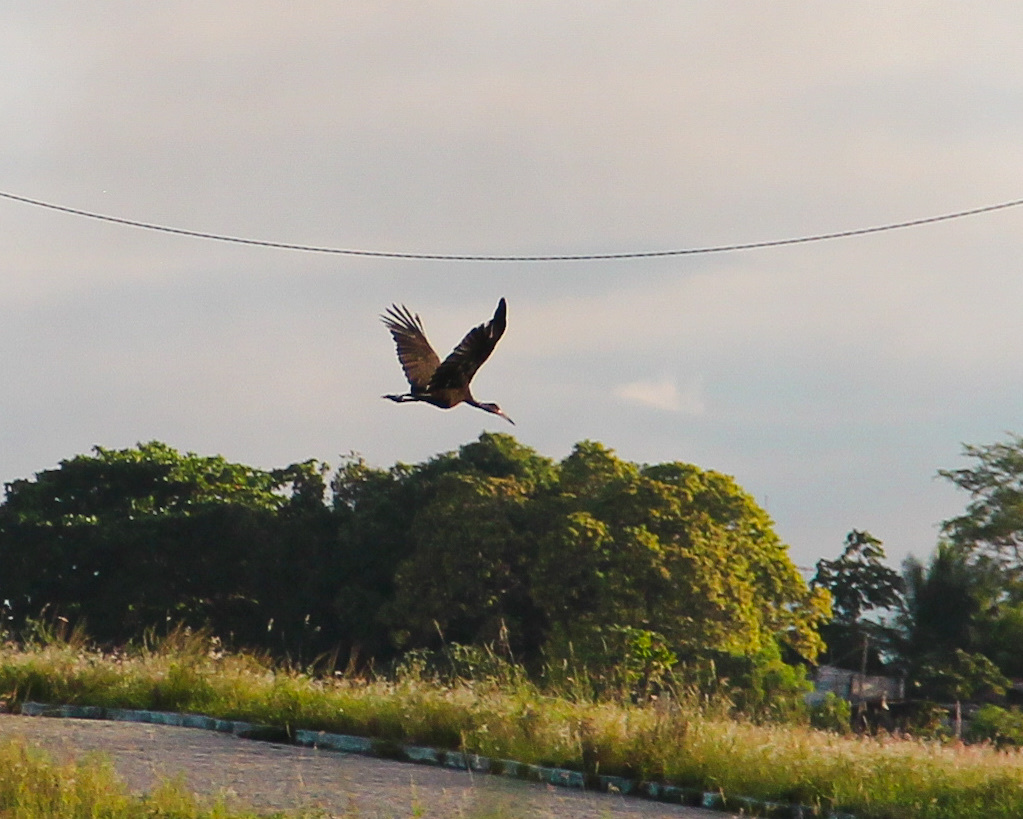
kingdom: Animalia
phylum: Chordata
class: Aves
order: Gruiformes
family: Aramidae
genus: Aramus
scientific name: Aramus guarauna
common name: Limpkin
